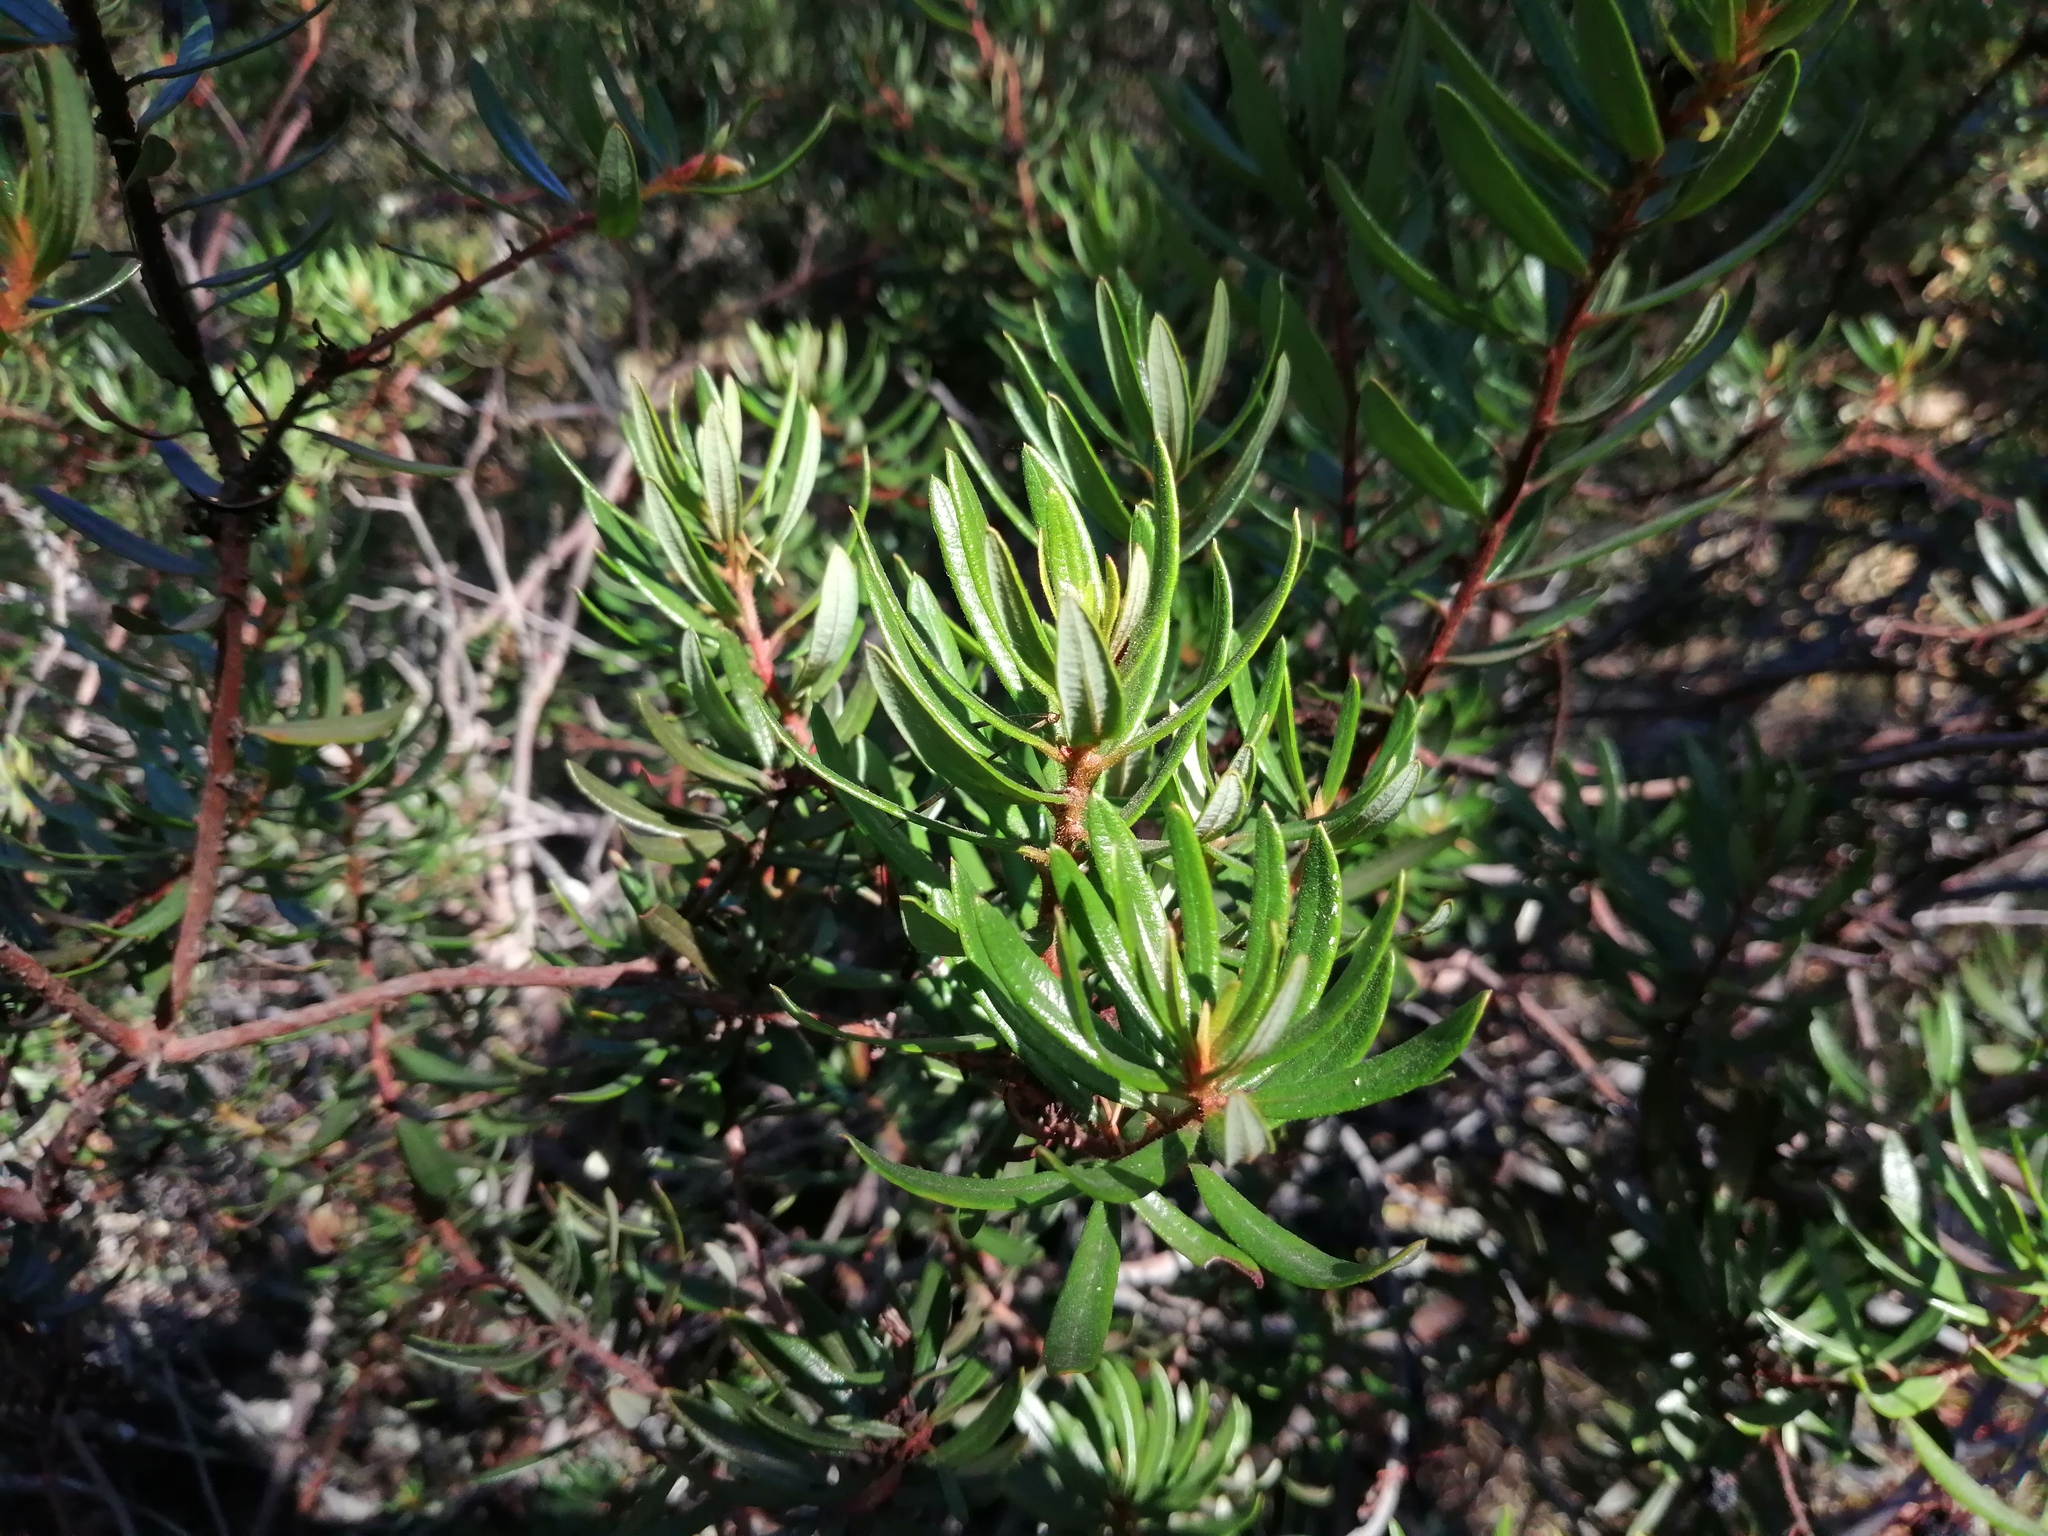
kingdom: Plantae
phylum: Tracheophyta
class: Magnoliopsida
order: Ericales
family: Ericaceae
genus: Comarostaphylis
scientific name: Comarostaphylis polifolia
